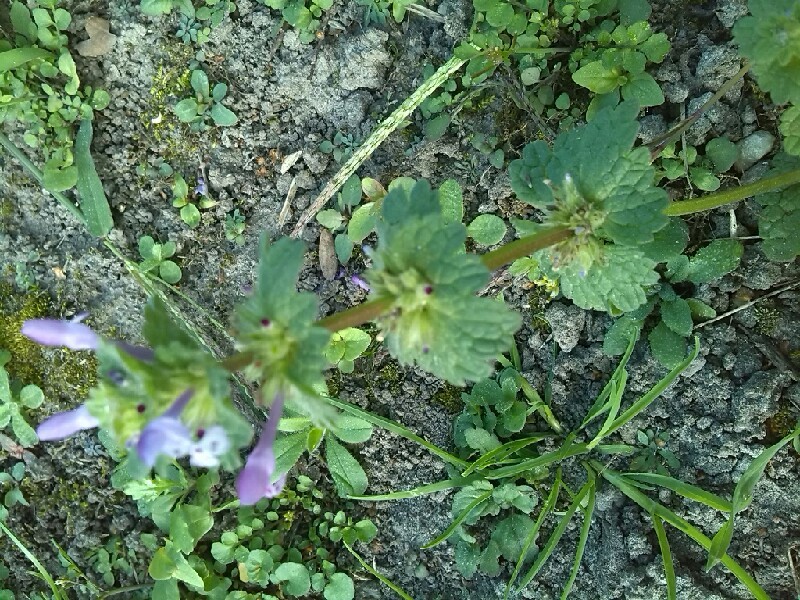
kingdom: Plantae
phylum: Tracheophyta
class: Magnoliopsida
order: Lamiales
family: Lamiaceae
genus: Lamium
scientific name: Lamium amplexicaule
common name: Henbit dead-nettle
